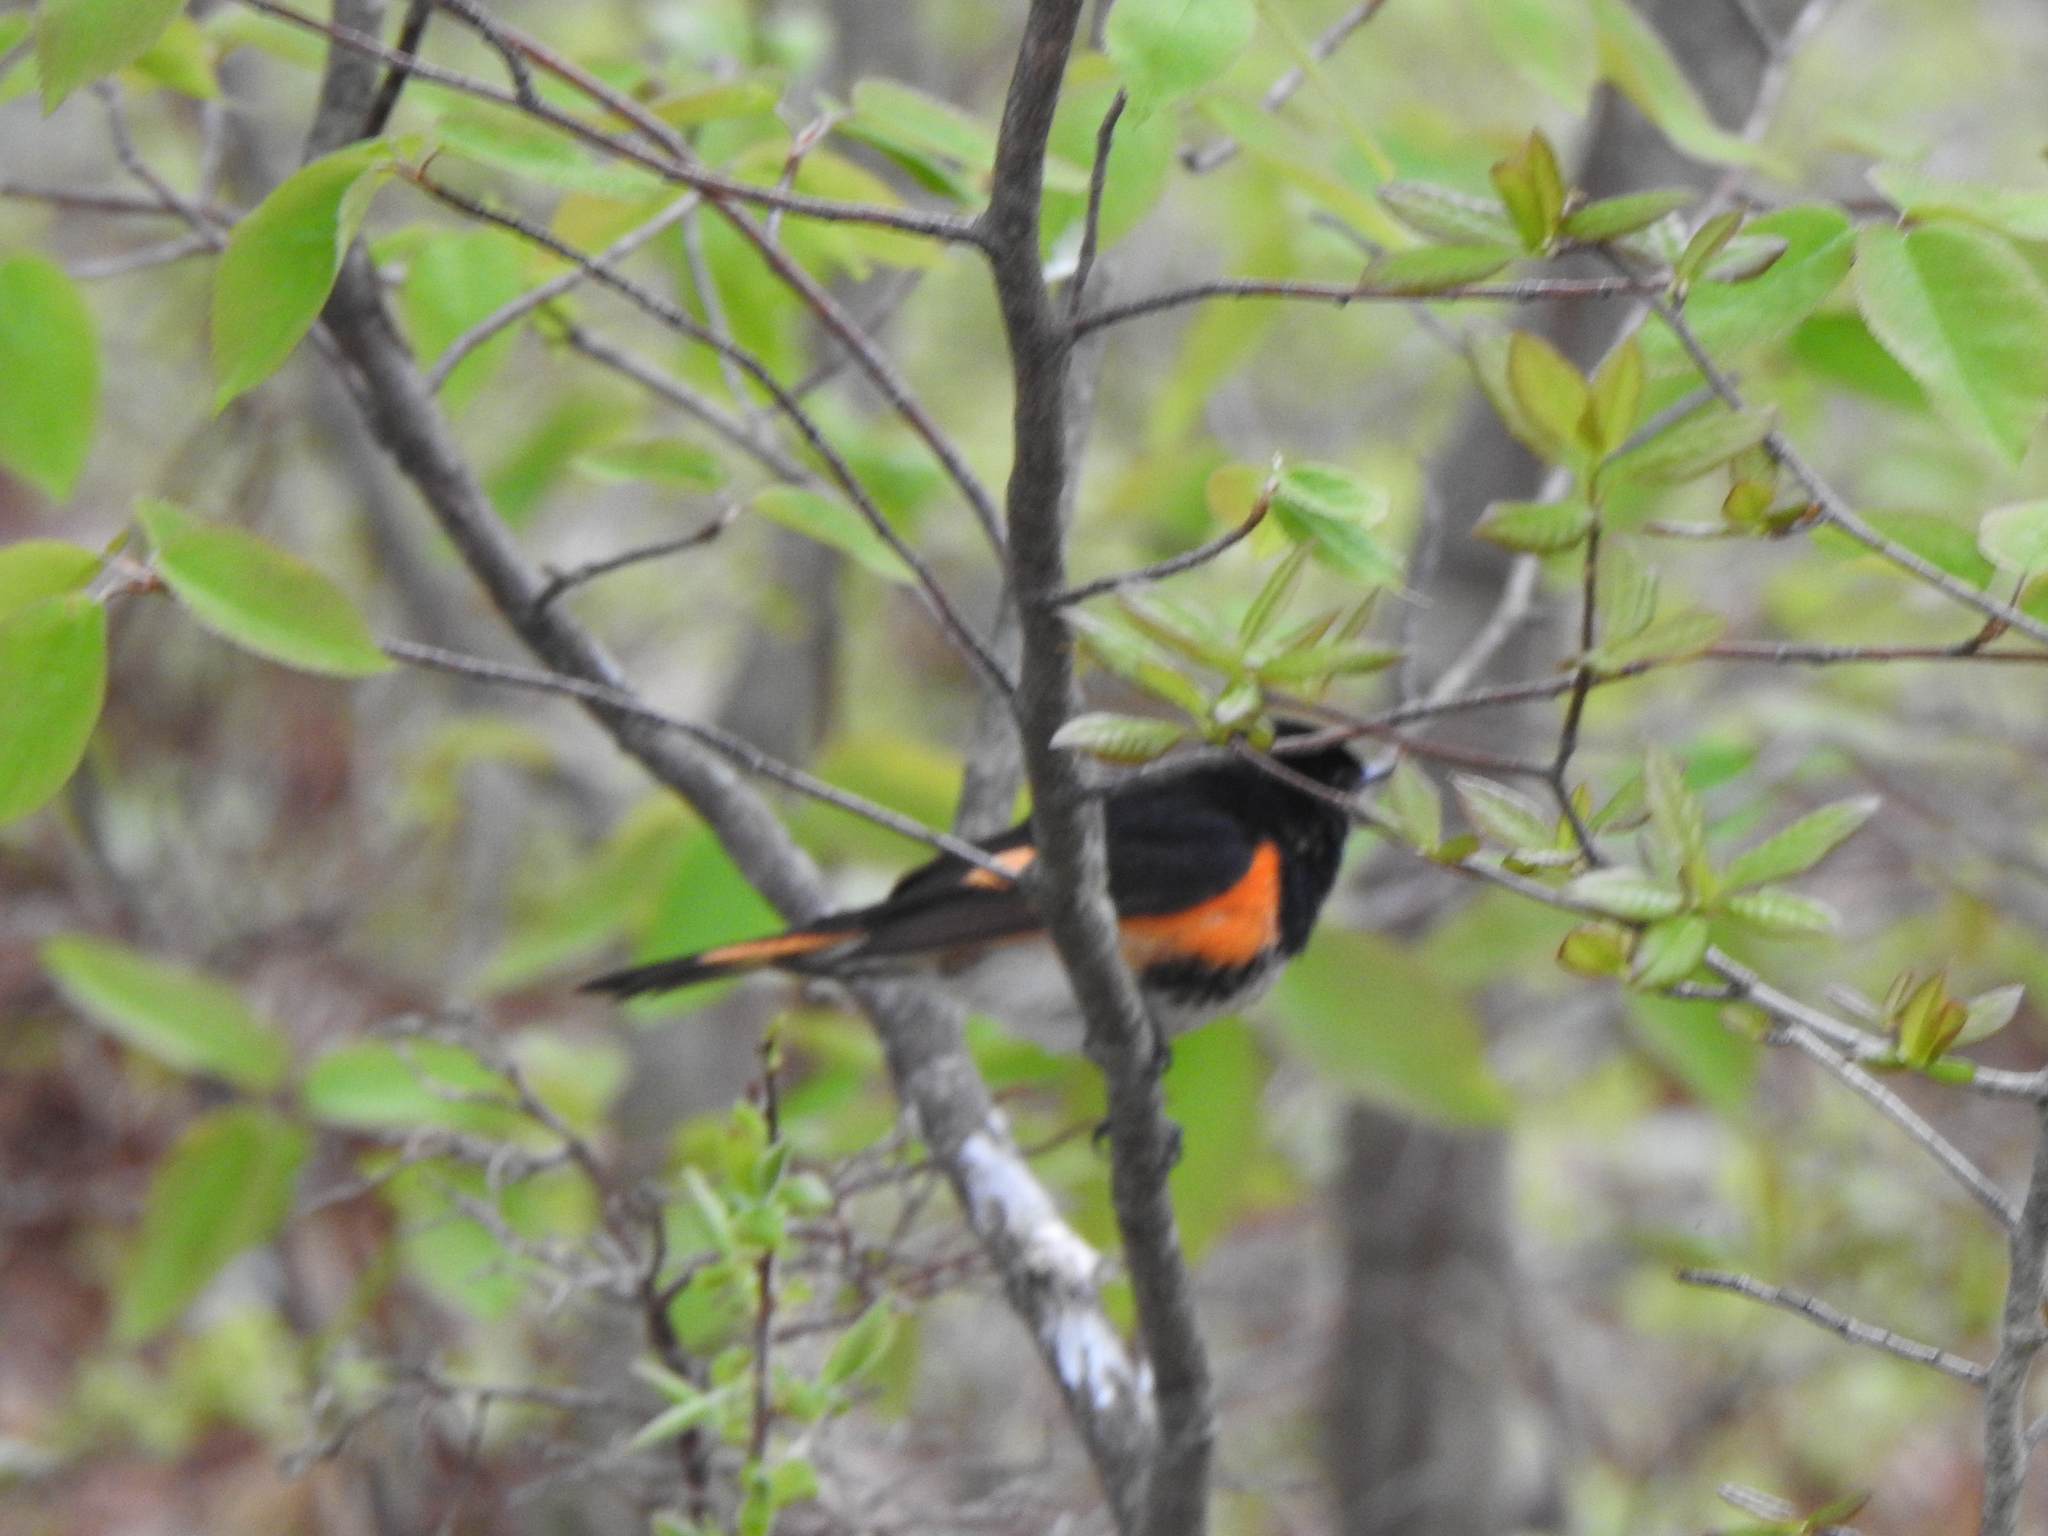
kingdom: Animalia
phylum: Chordata
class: Aves
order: Passeriformes
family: Parulidae
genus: Setophaga
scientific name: Setophaga ruticilla
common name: American redstart
